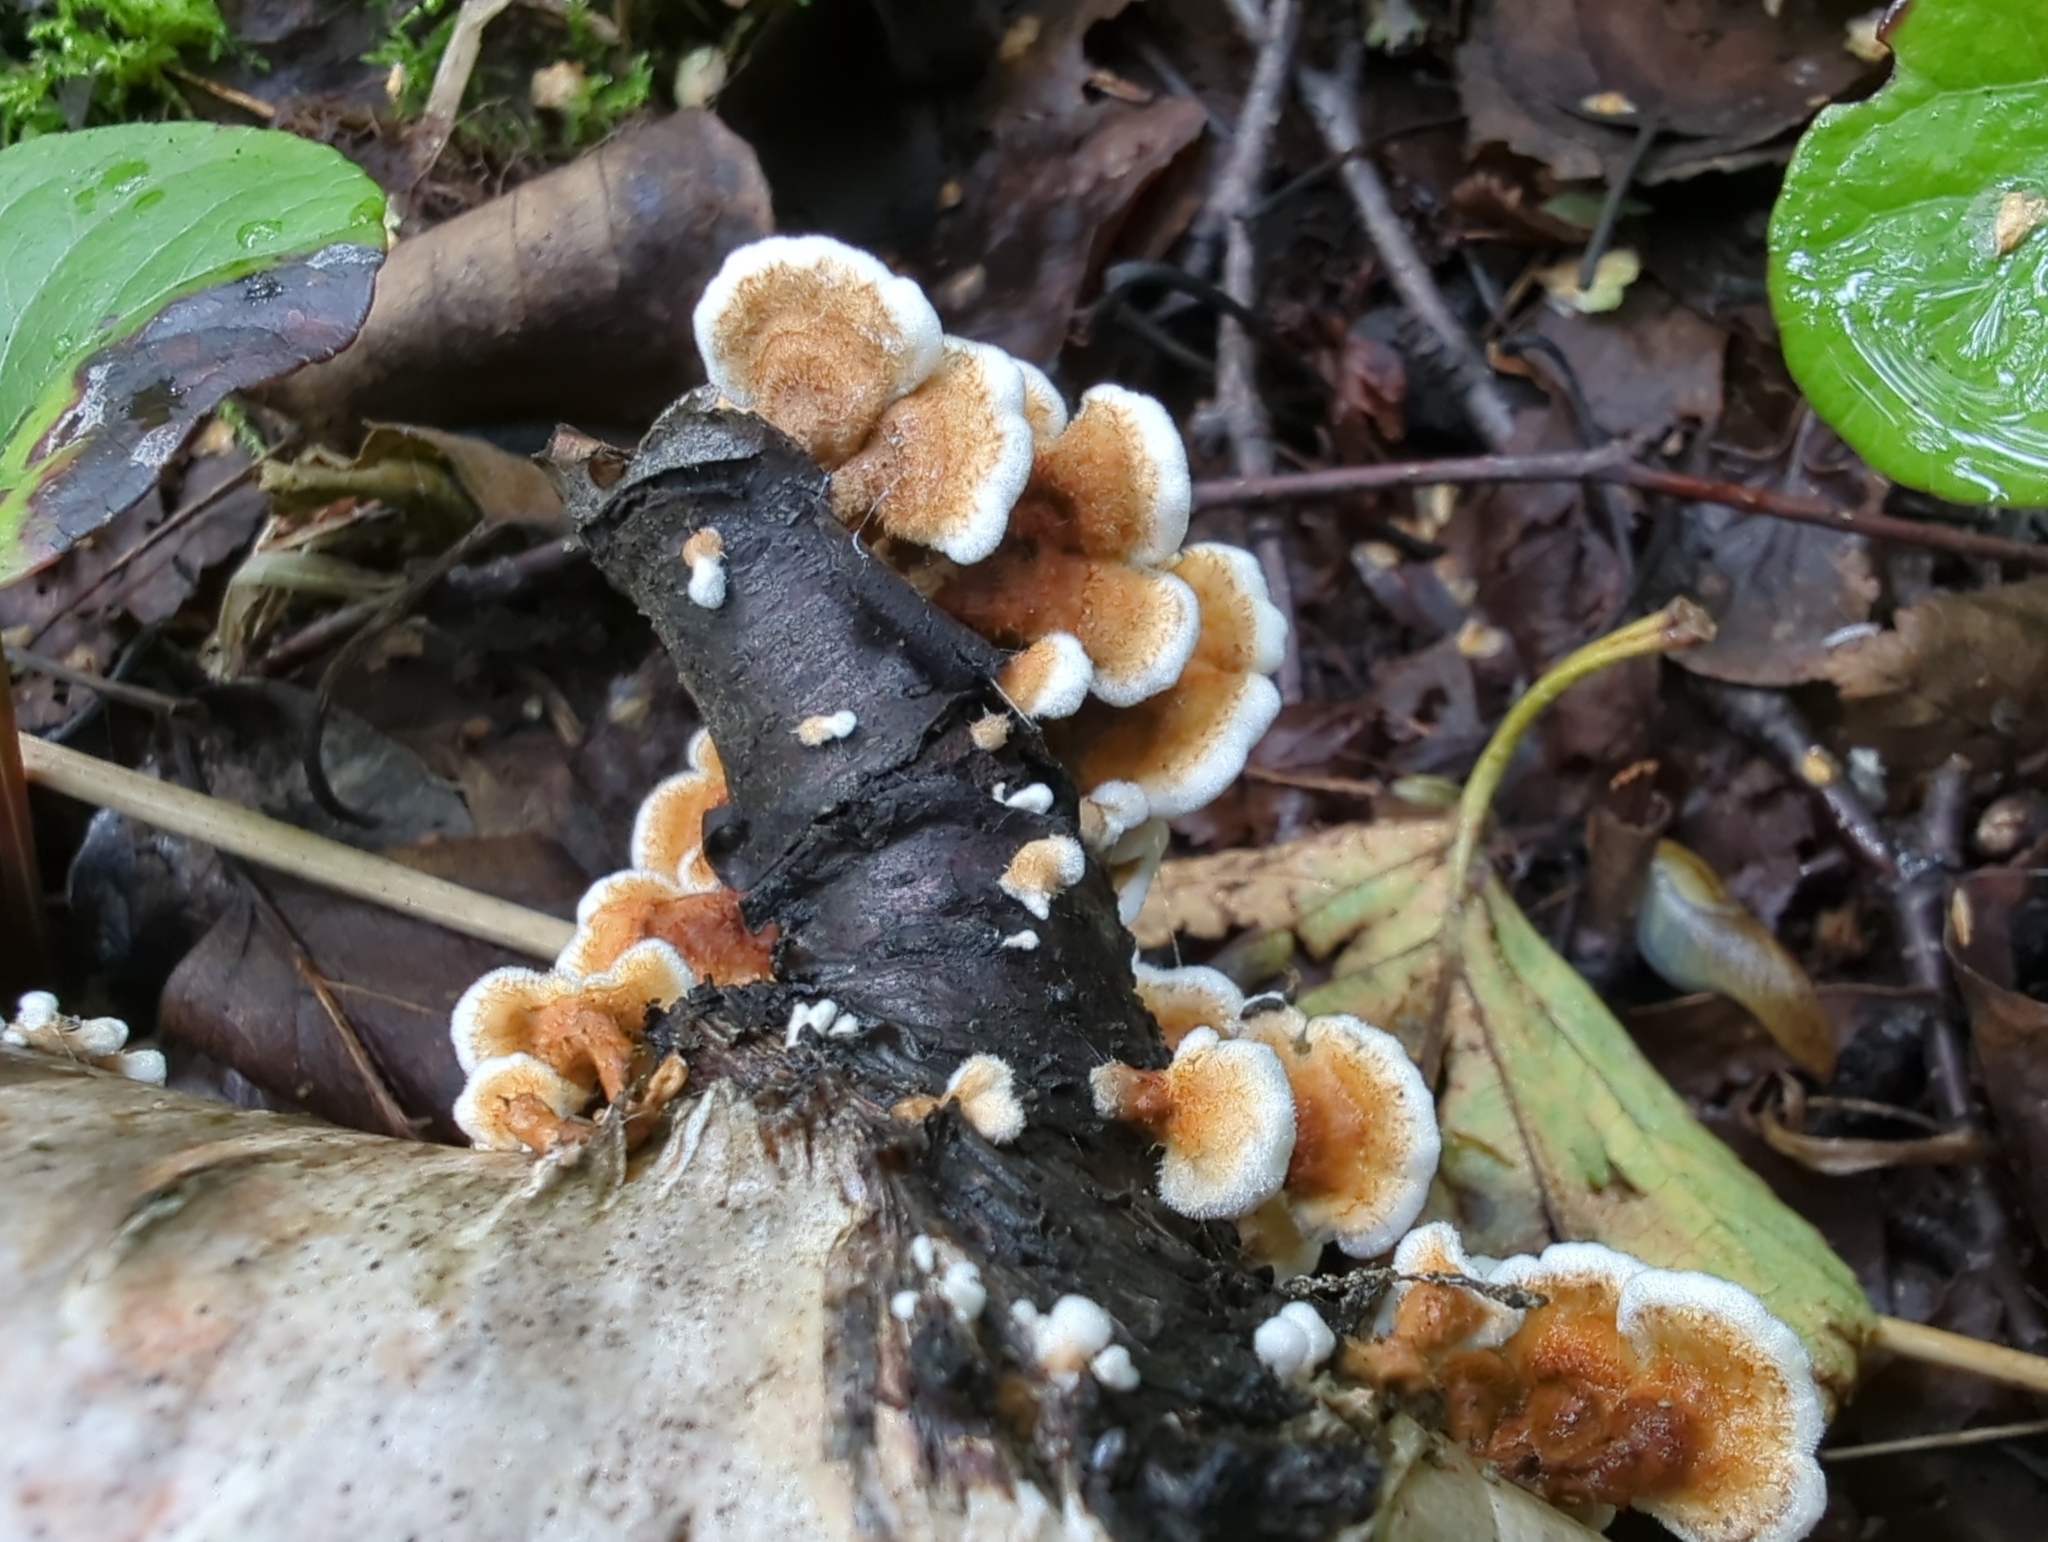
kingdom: Fungi
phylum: Basidiomycota
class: Agaricomycetes
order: Amylocorticiales
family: Amylocorticiaceae
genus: Plicaturopsis
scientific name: Plicaturopsis crispa
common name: Crimped gill
